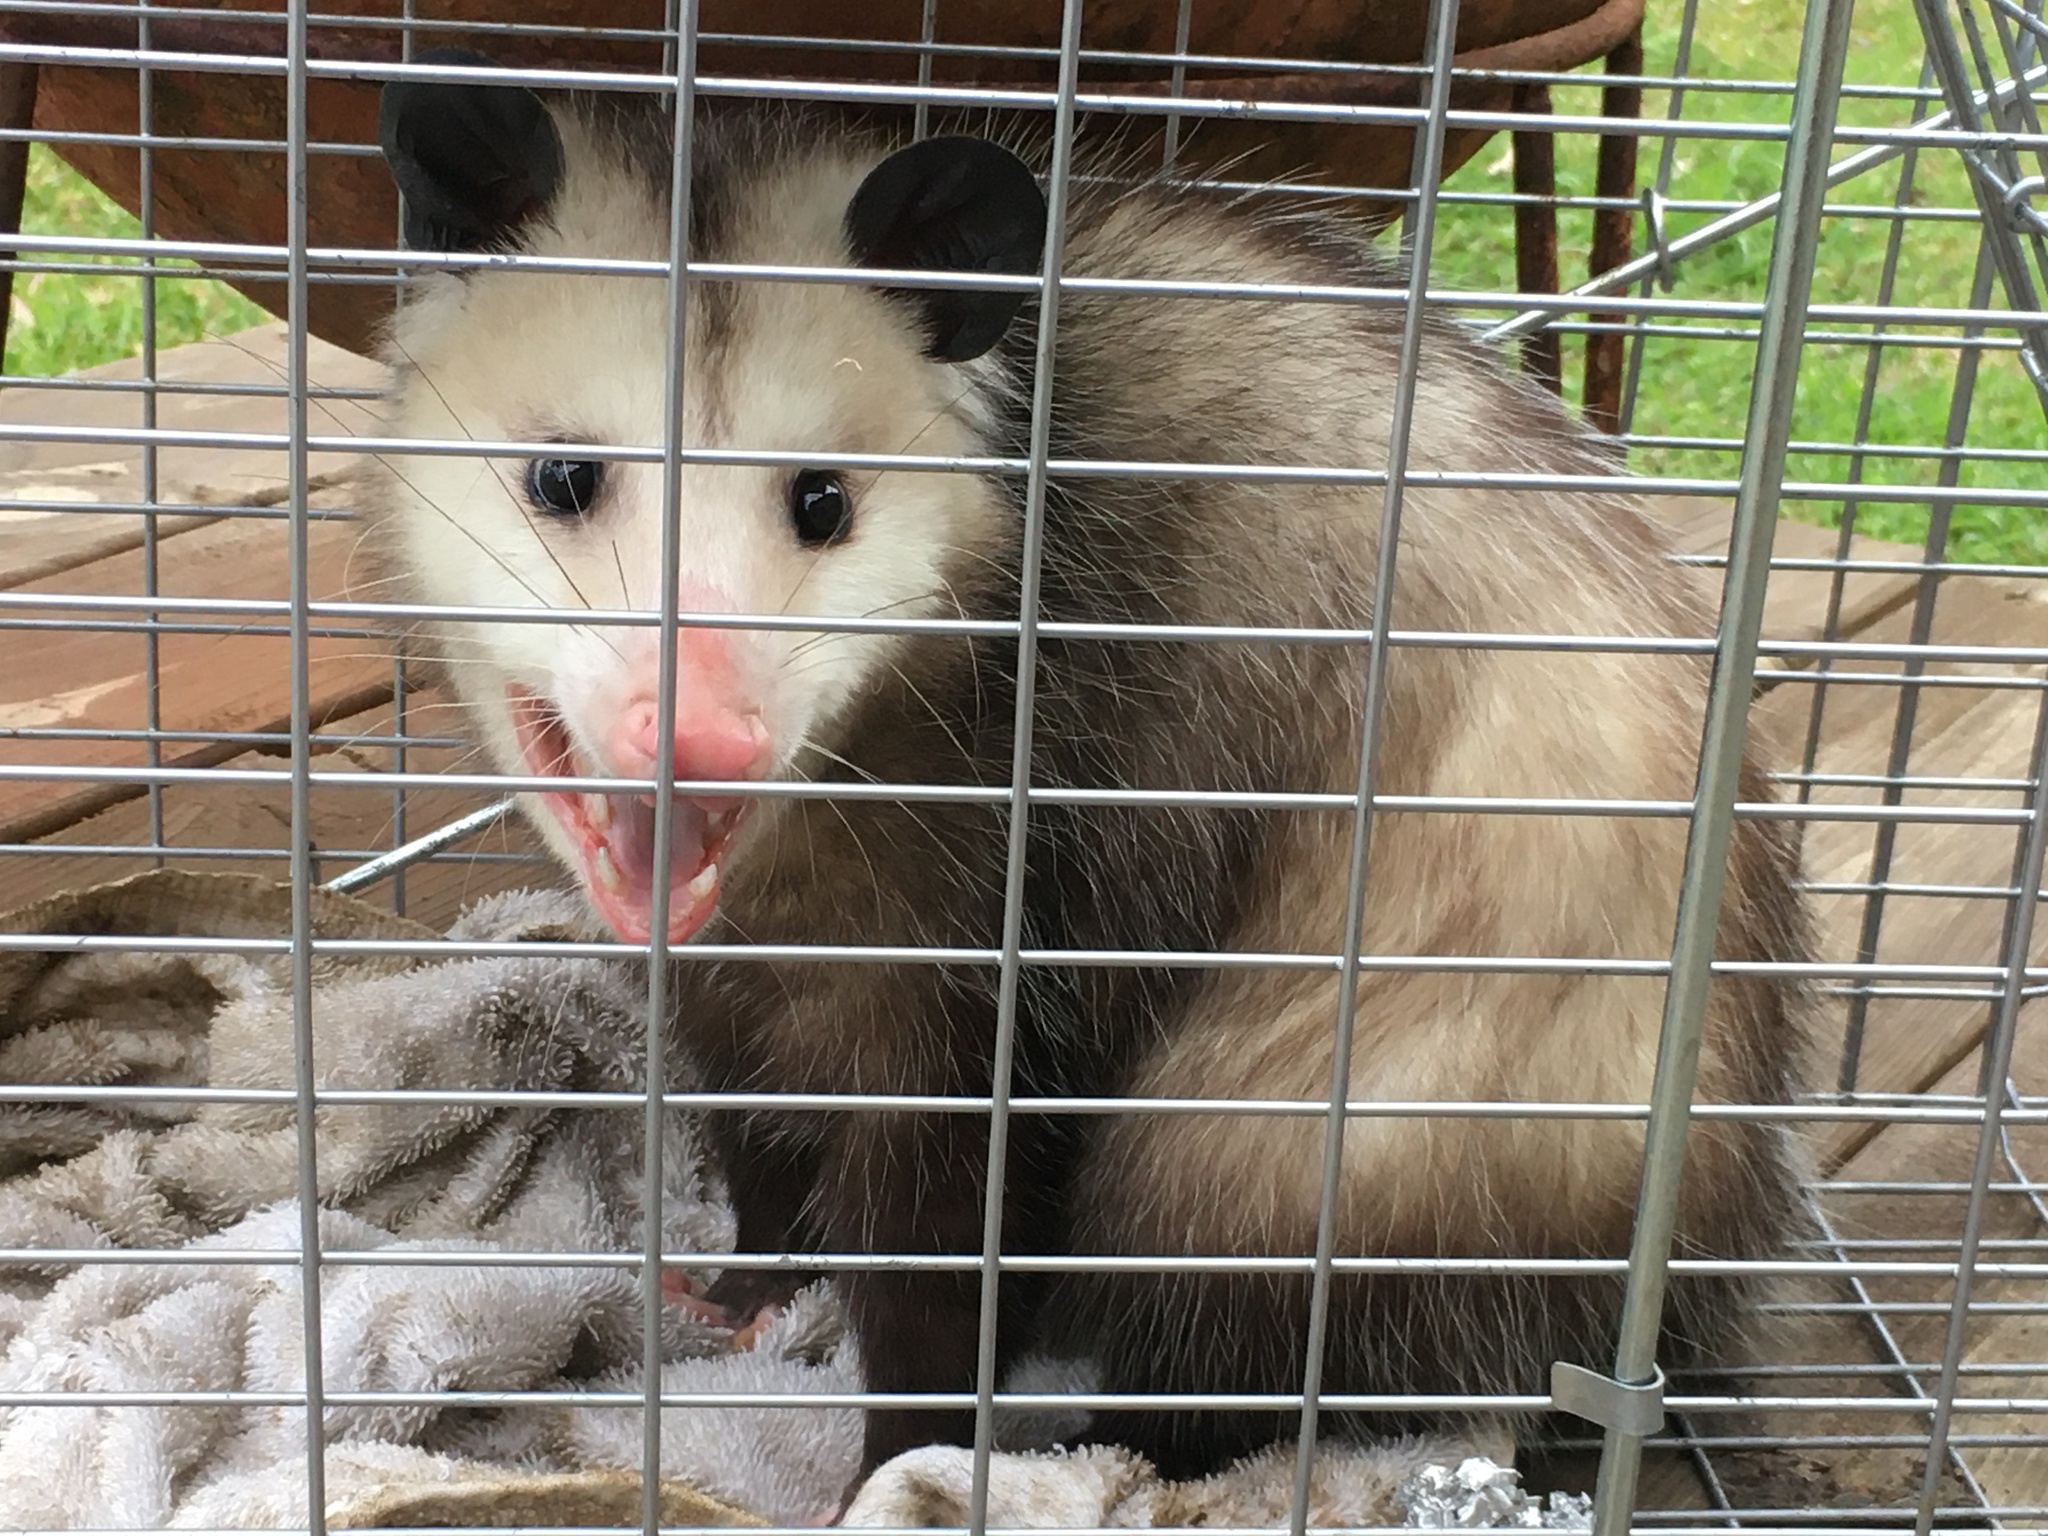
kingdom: Animalia
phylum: Chordata
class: Mammalia
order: Didelphimorphia
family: Didelphidae
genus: Didelphis
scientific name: Didelphis virginiana
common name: Virginia opossum
